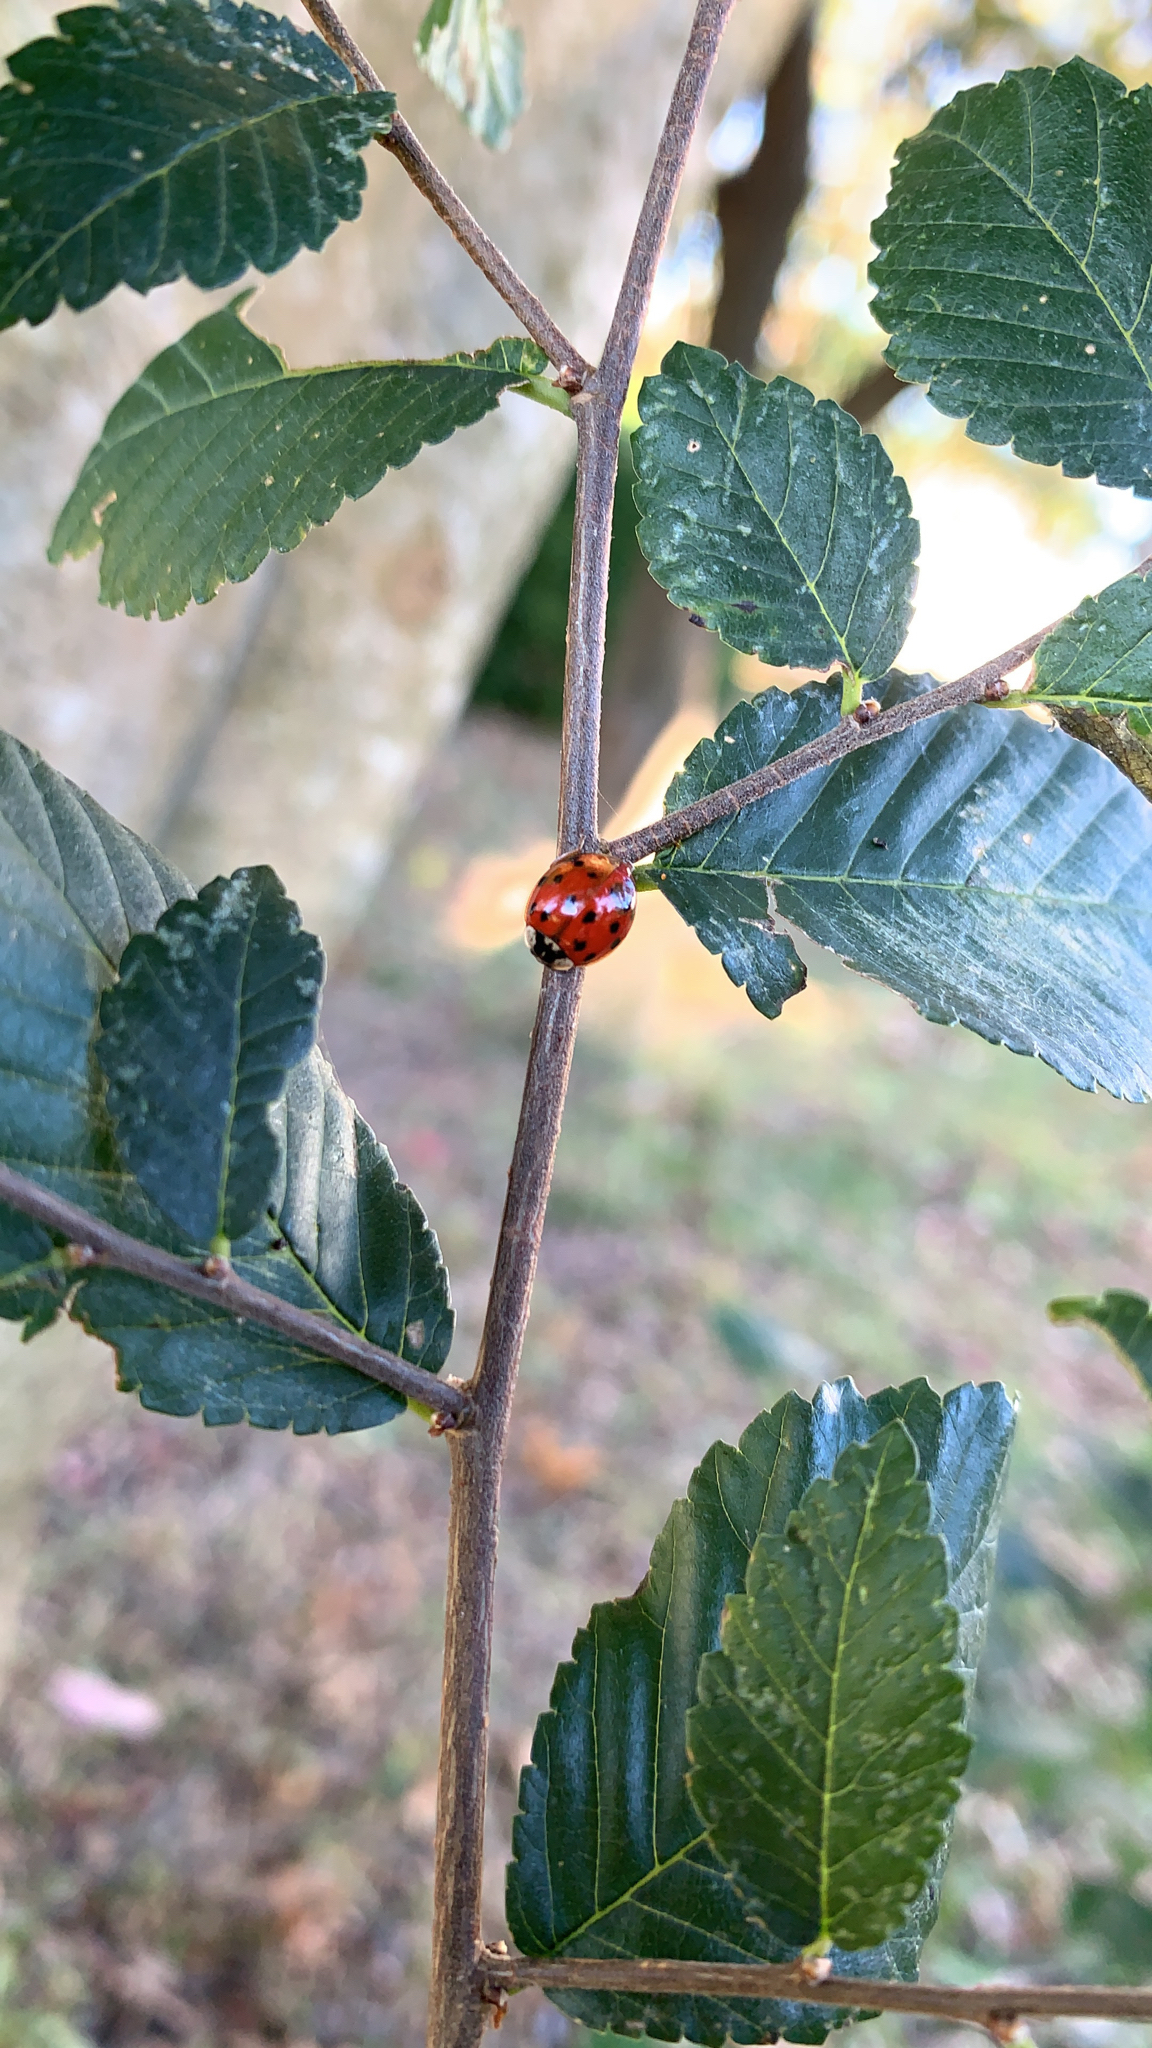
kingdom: Animalia
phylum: Arthropoda
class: Insecta
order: Coleoptera
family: Coccinellidae
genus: Harmonia
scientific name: Harmonia axyridis
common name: Harlequin ladybird
